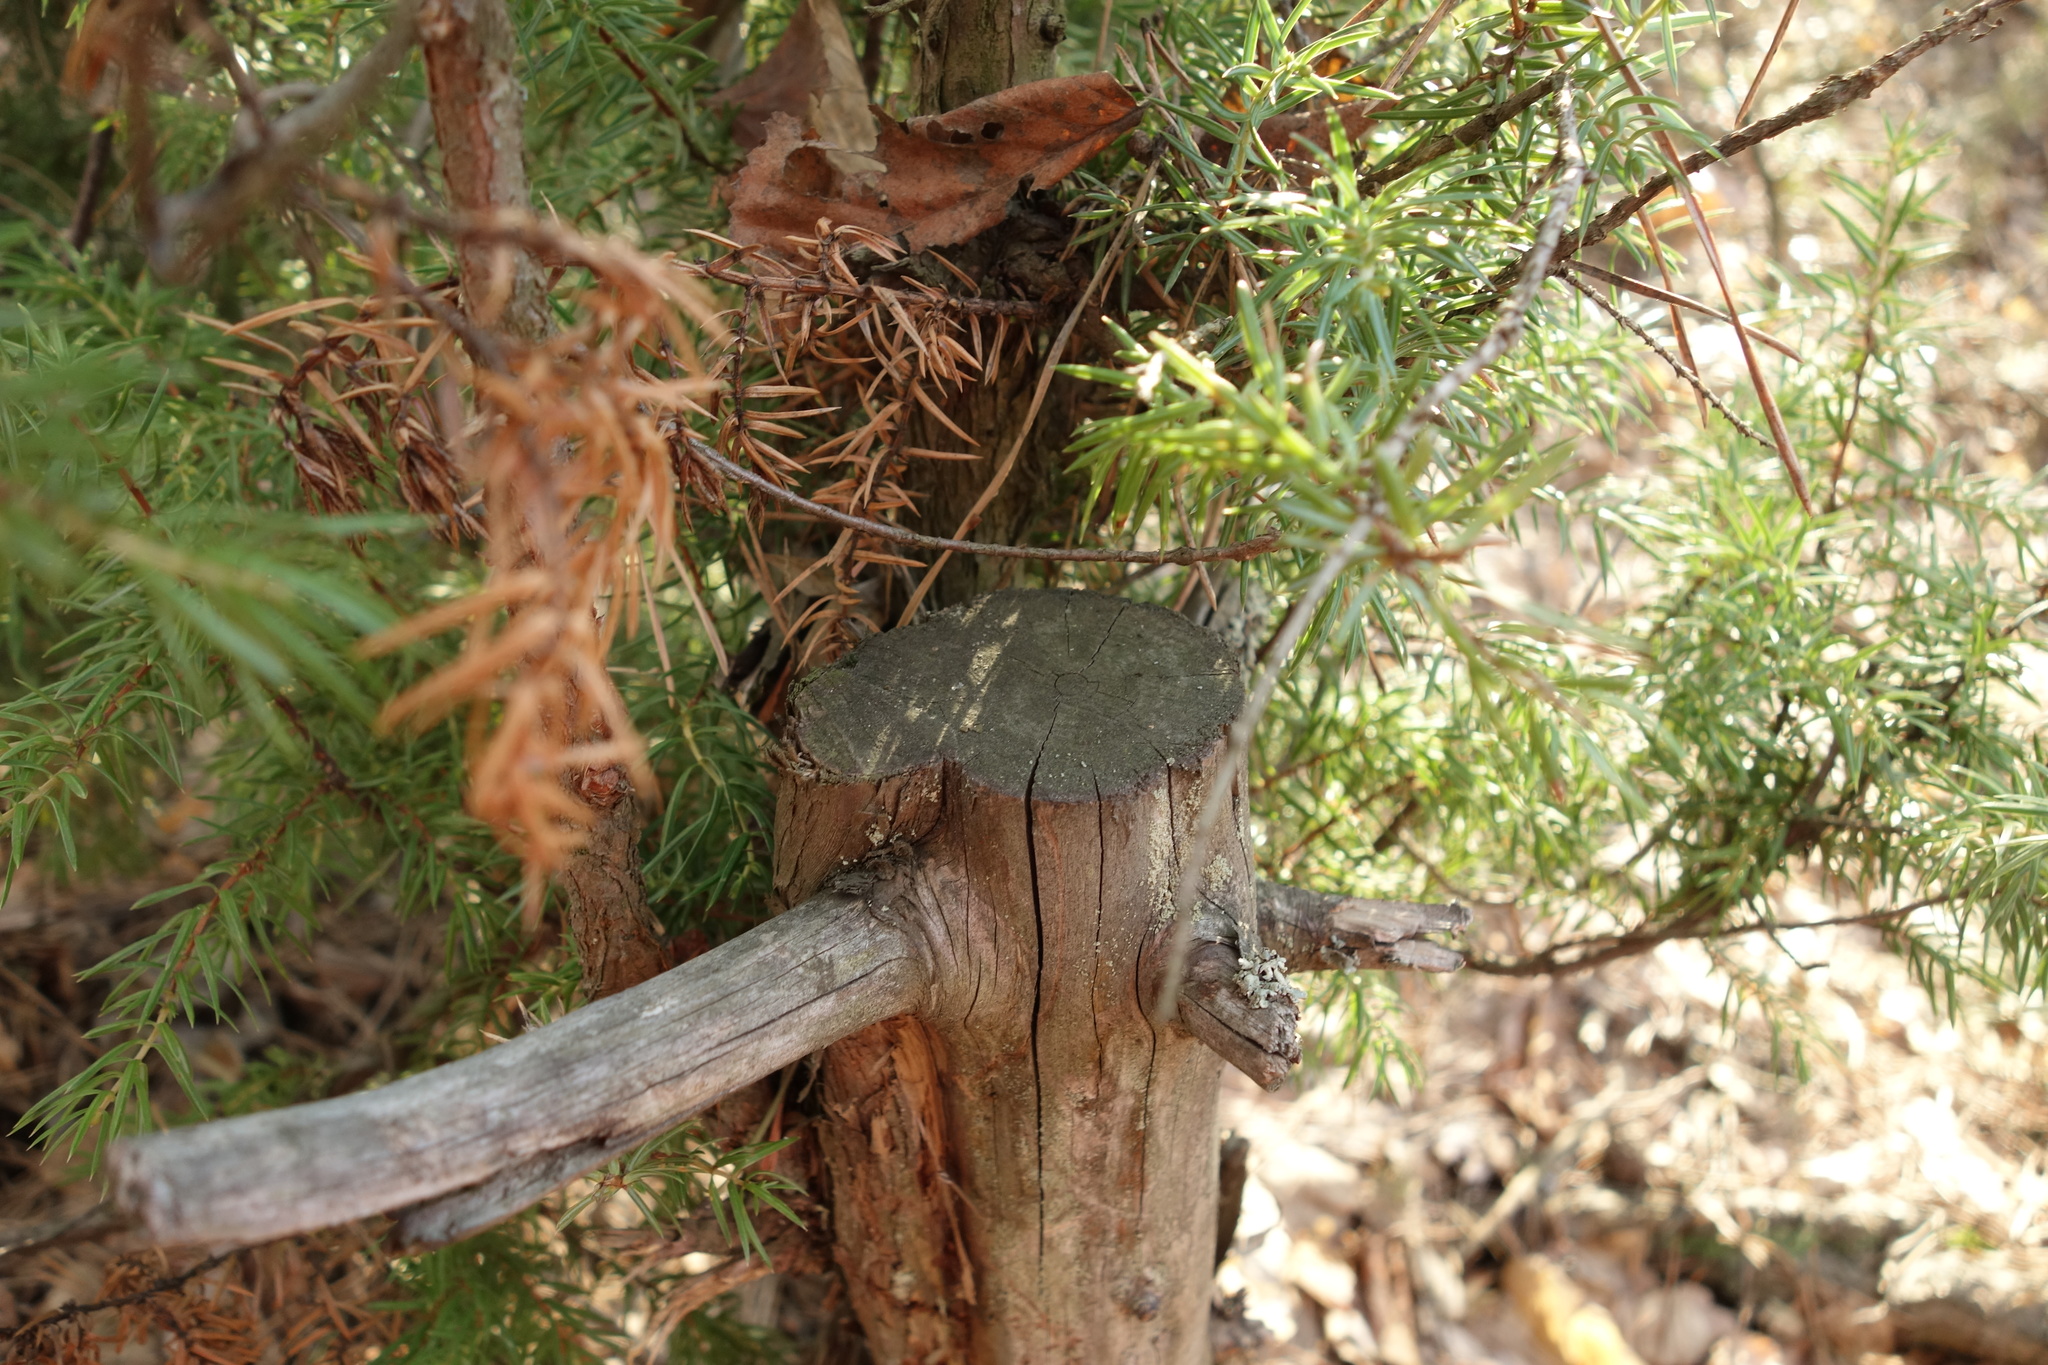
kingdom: Plantae
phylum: Tracheophyta
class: Pinopsida
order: Pinales
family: Cupressaceae
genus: Juniperus
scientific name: Juniperus communis
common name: Common juniper
